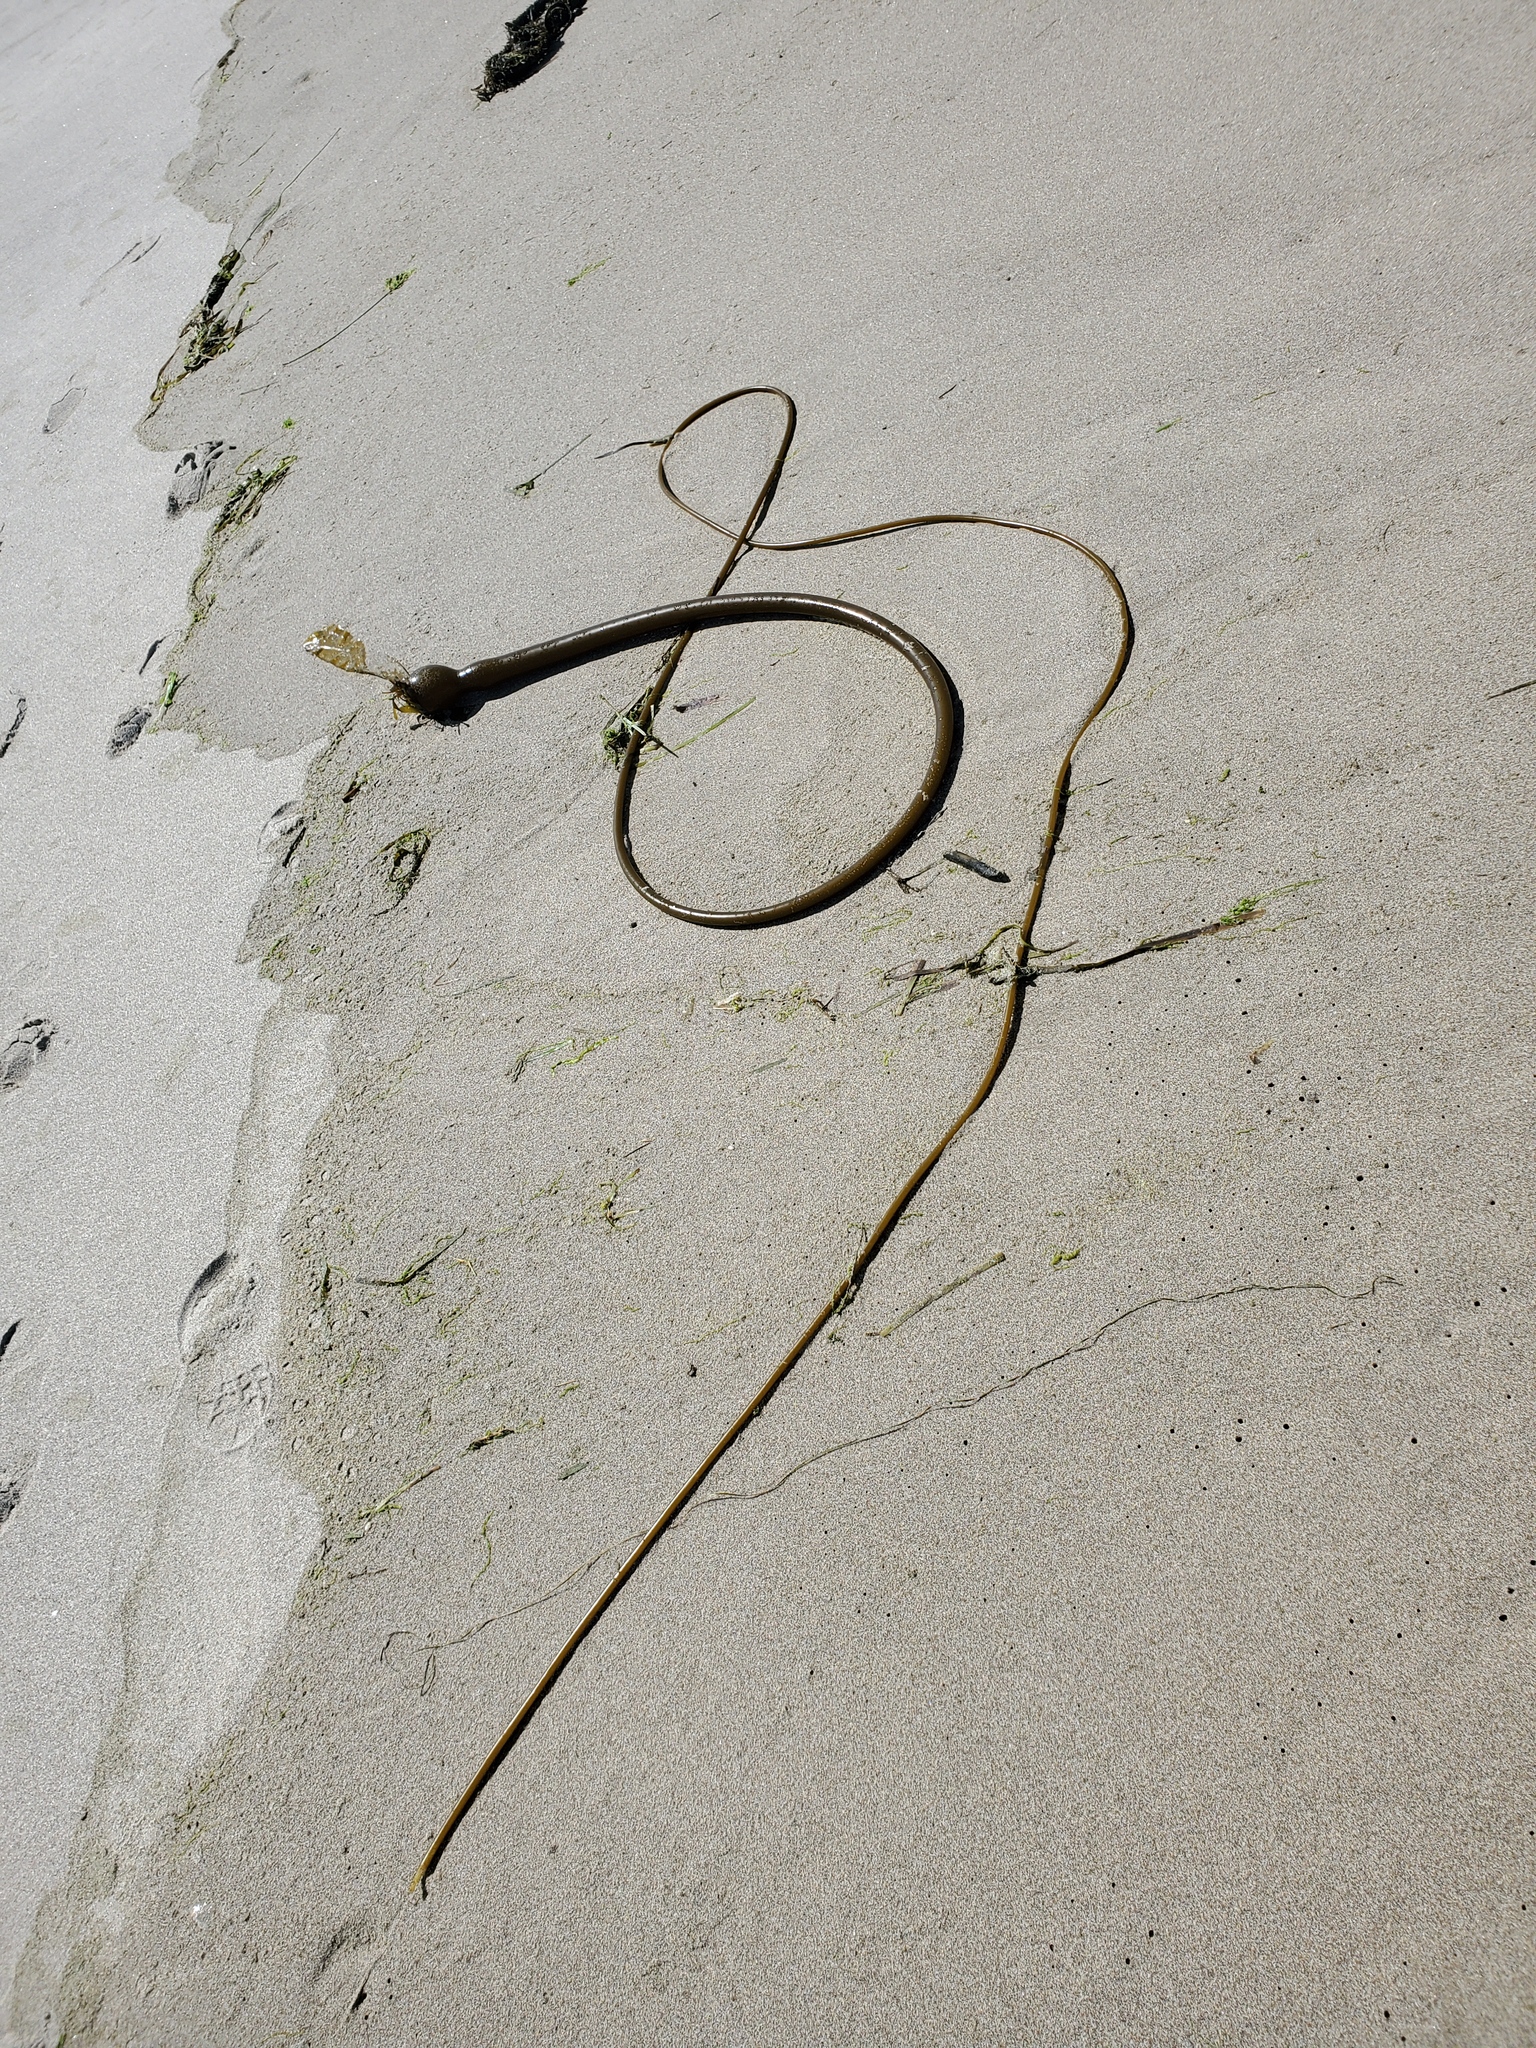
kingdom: Chromista
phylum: Ochrophyta
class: Phaeophyceae
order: Laminariales
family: Laminariaceae
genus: Nereocystis
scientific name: Nereocystis luetkeana
